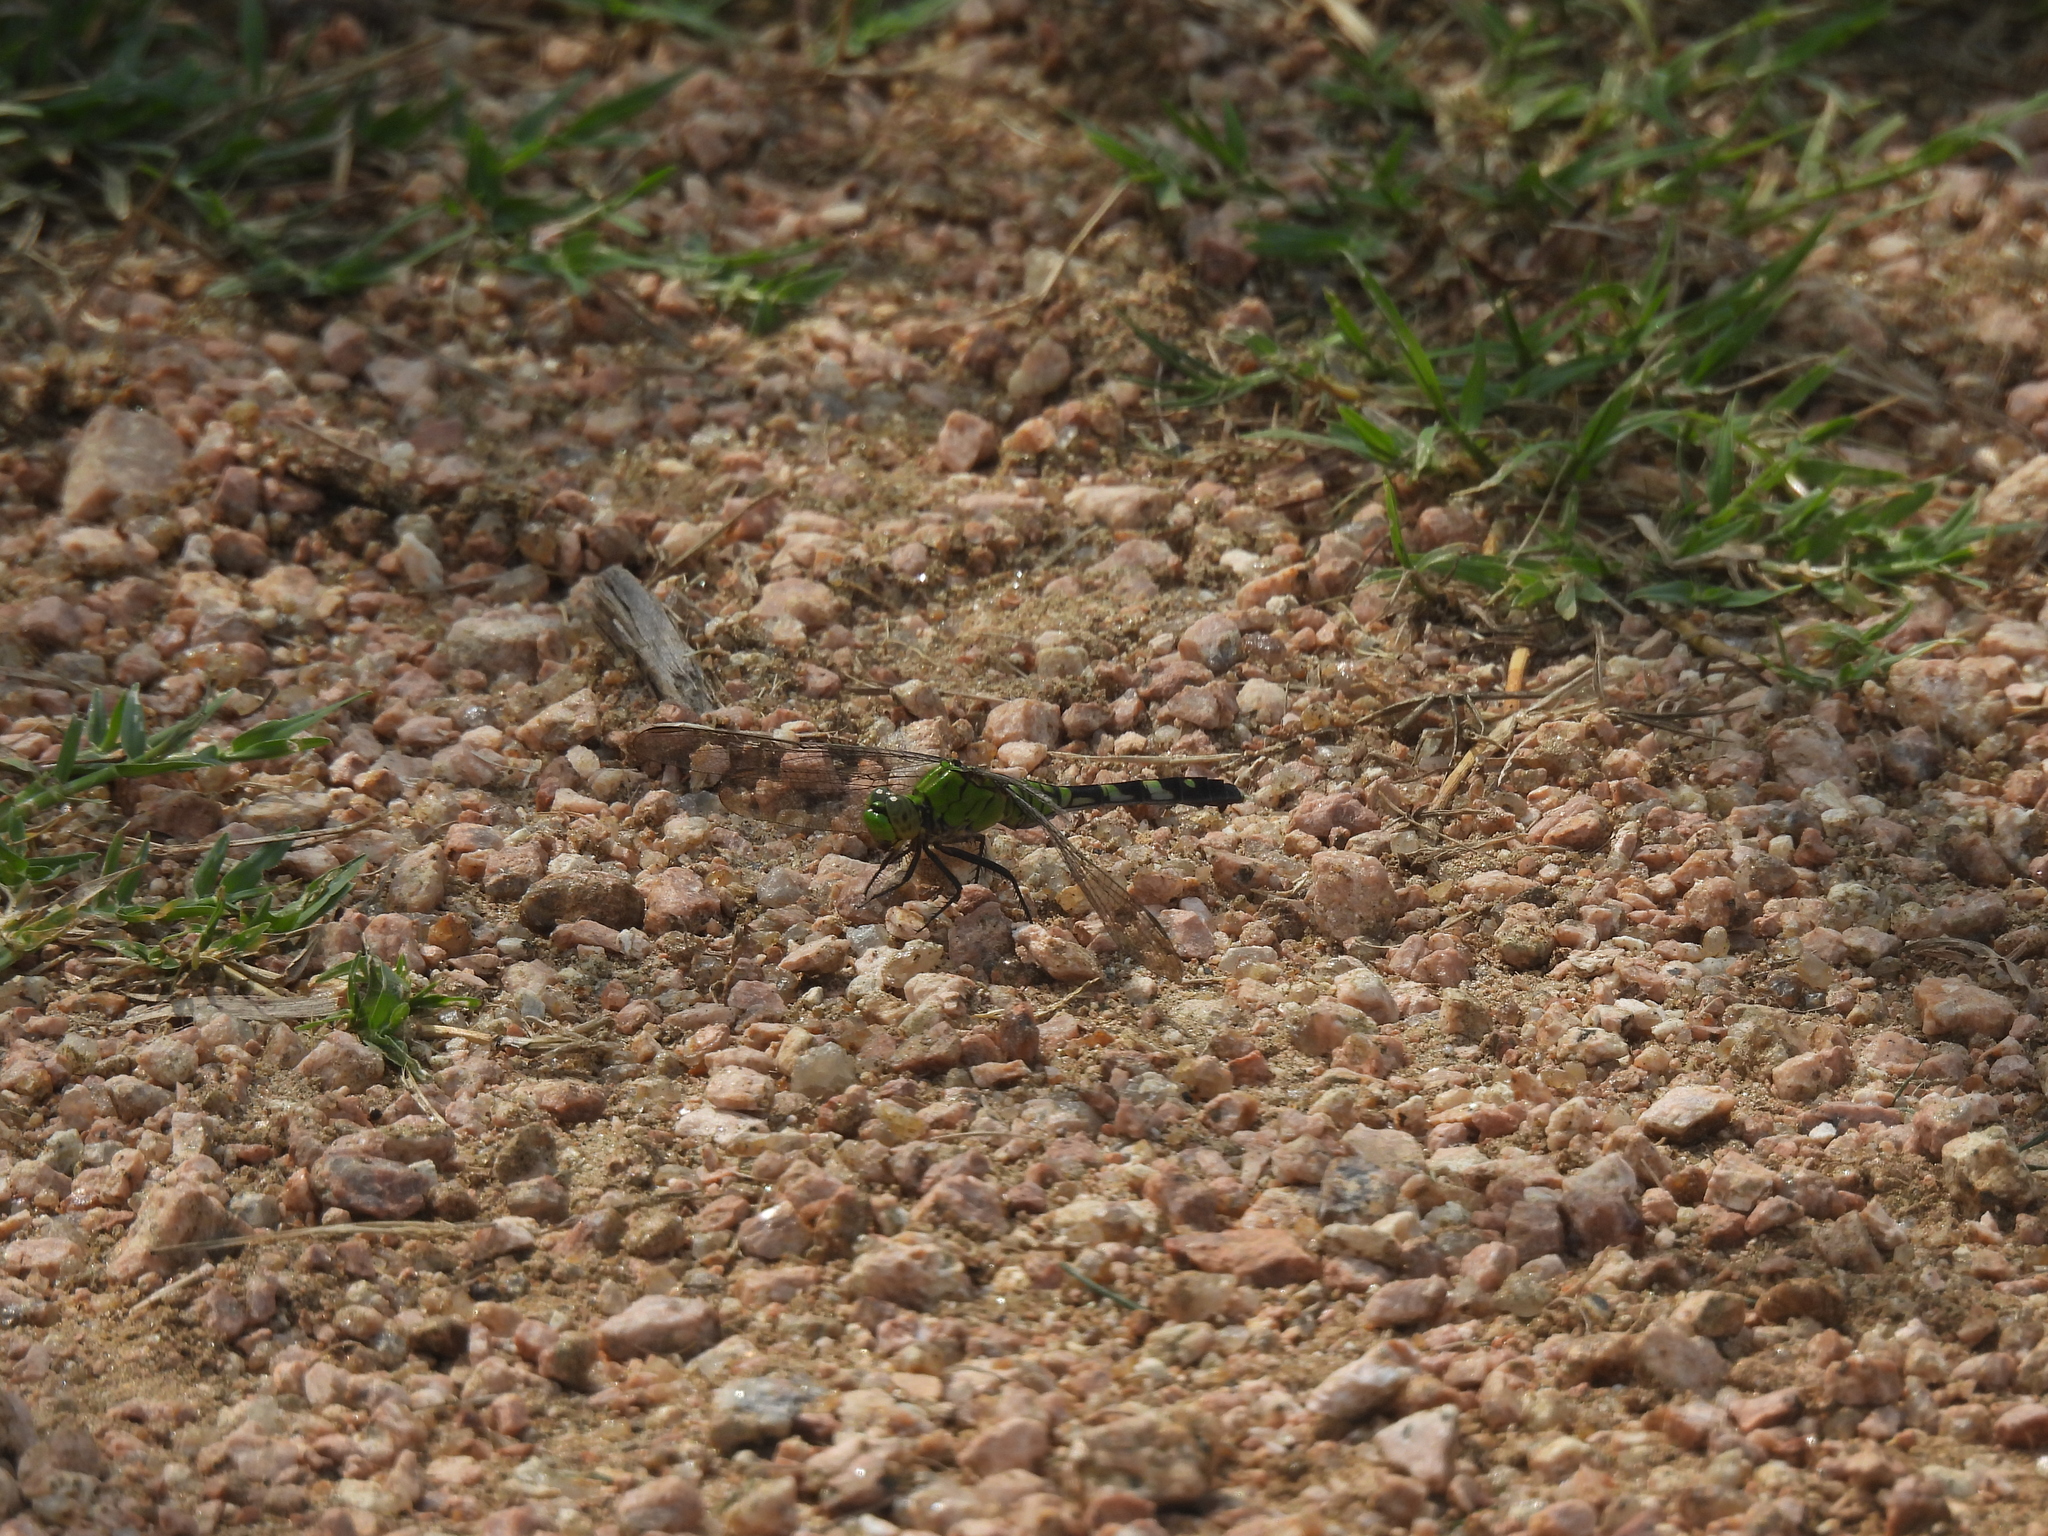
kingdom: Animalia
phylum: Arthropoda
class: Insecta
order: Odonata
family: Libellulidae
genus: Erythemis
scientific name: Erythemis simplicicollis
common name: Eastern pondhawk
